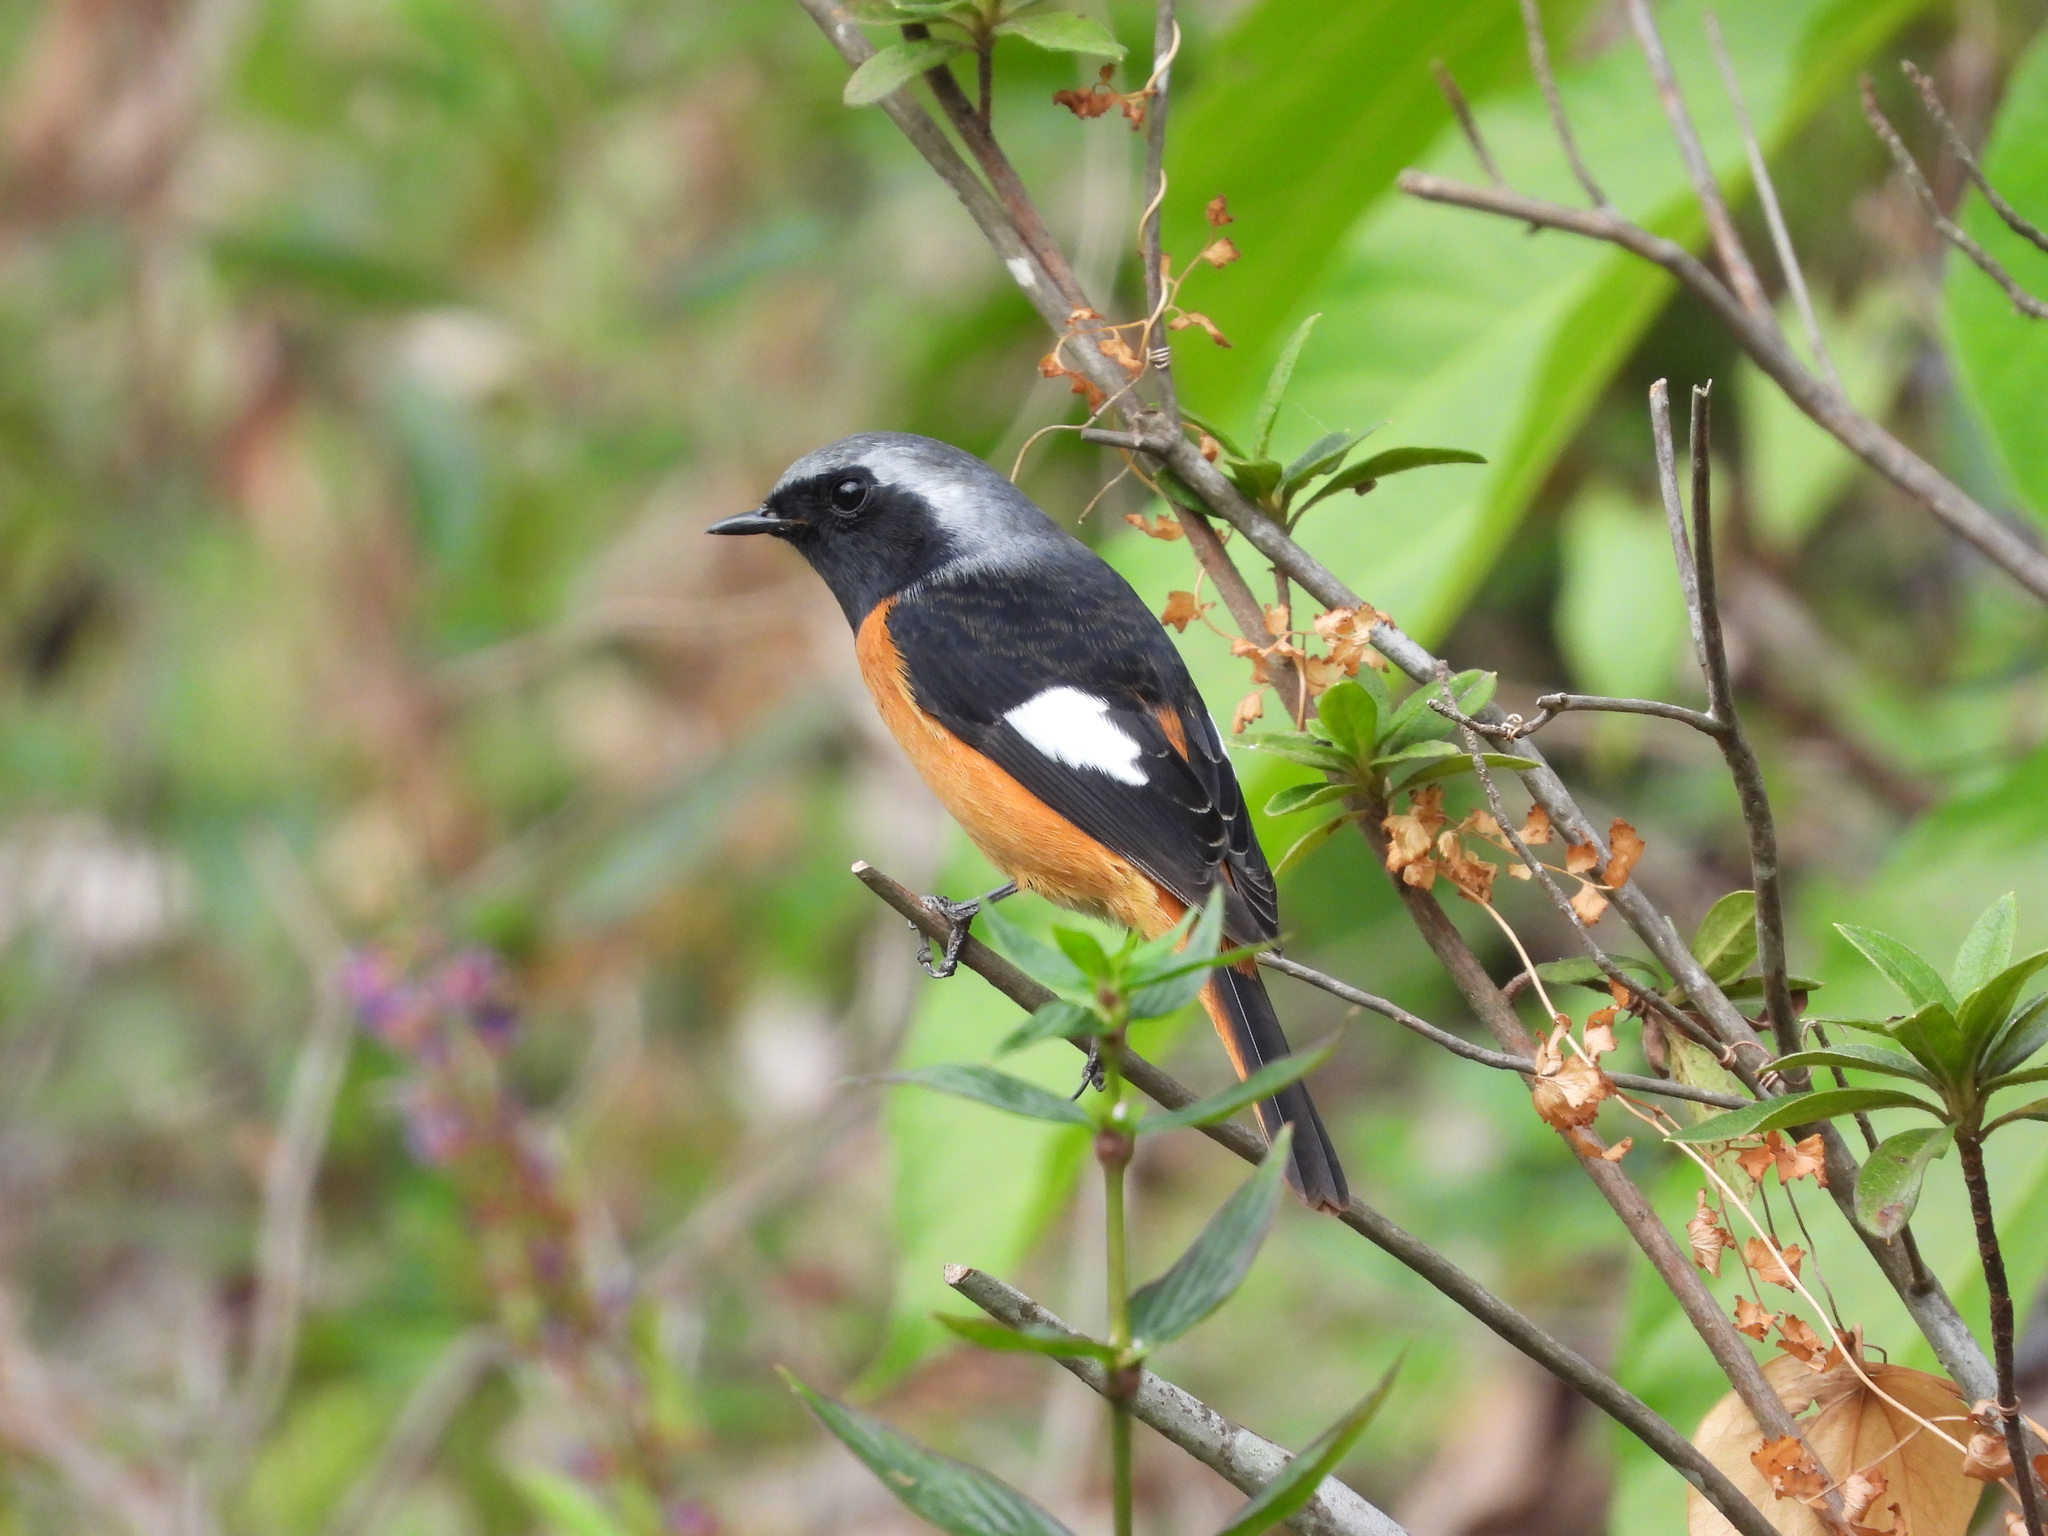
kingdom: Animalia
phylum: Chordata
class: Aves
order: Passeriformes
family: Muscicapidae
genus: Phoenicurus
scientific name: Phoenicurus auroreus
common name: Daurian redstart
